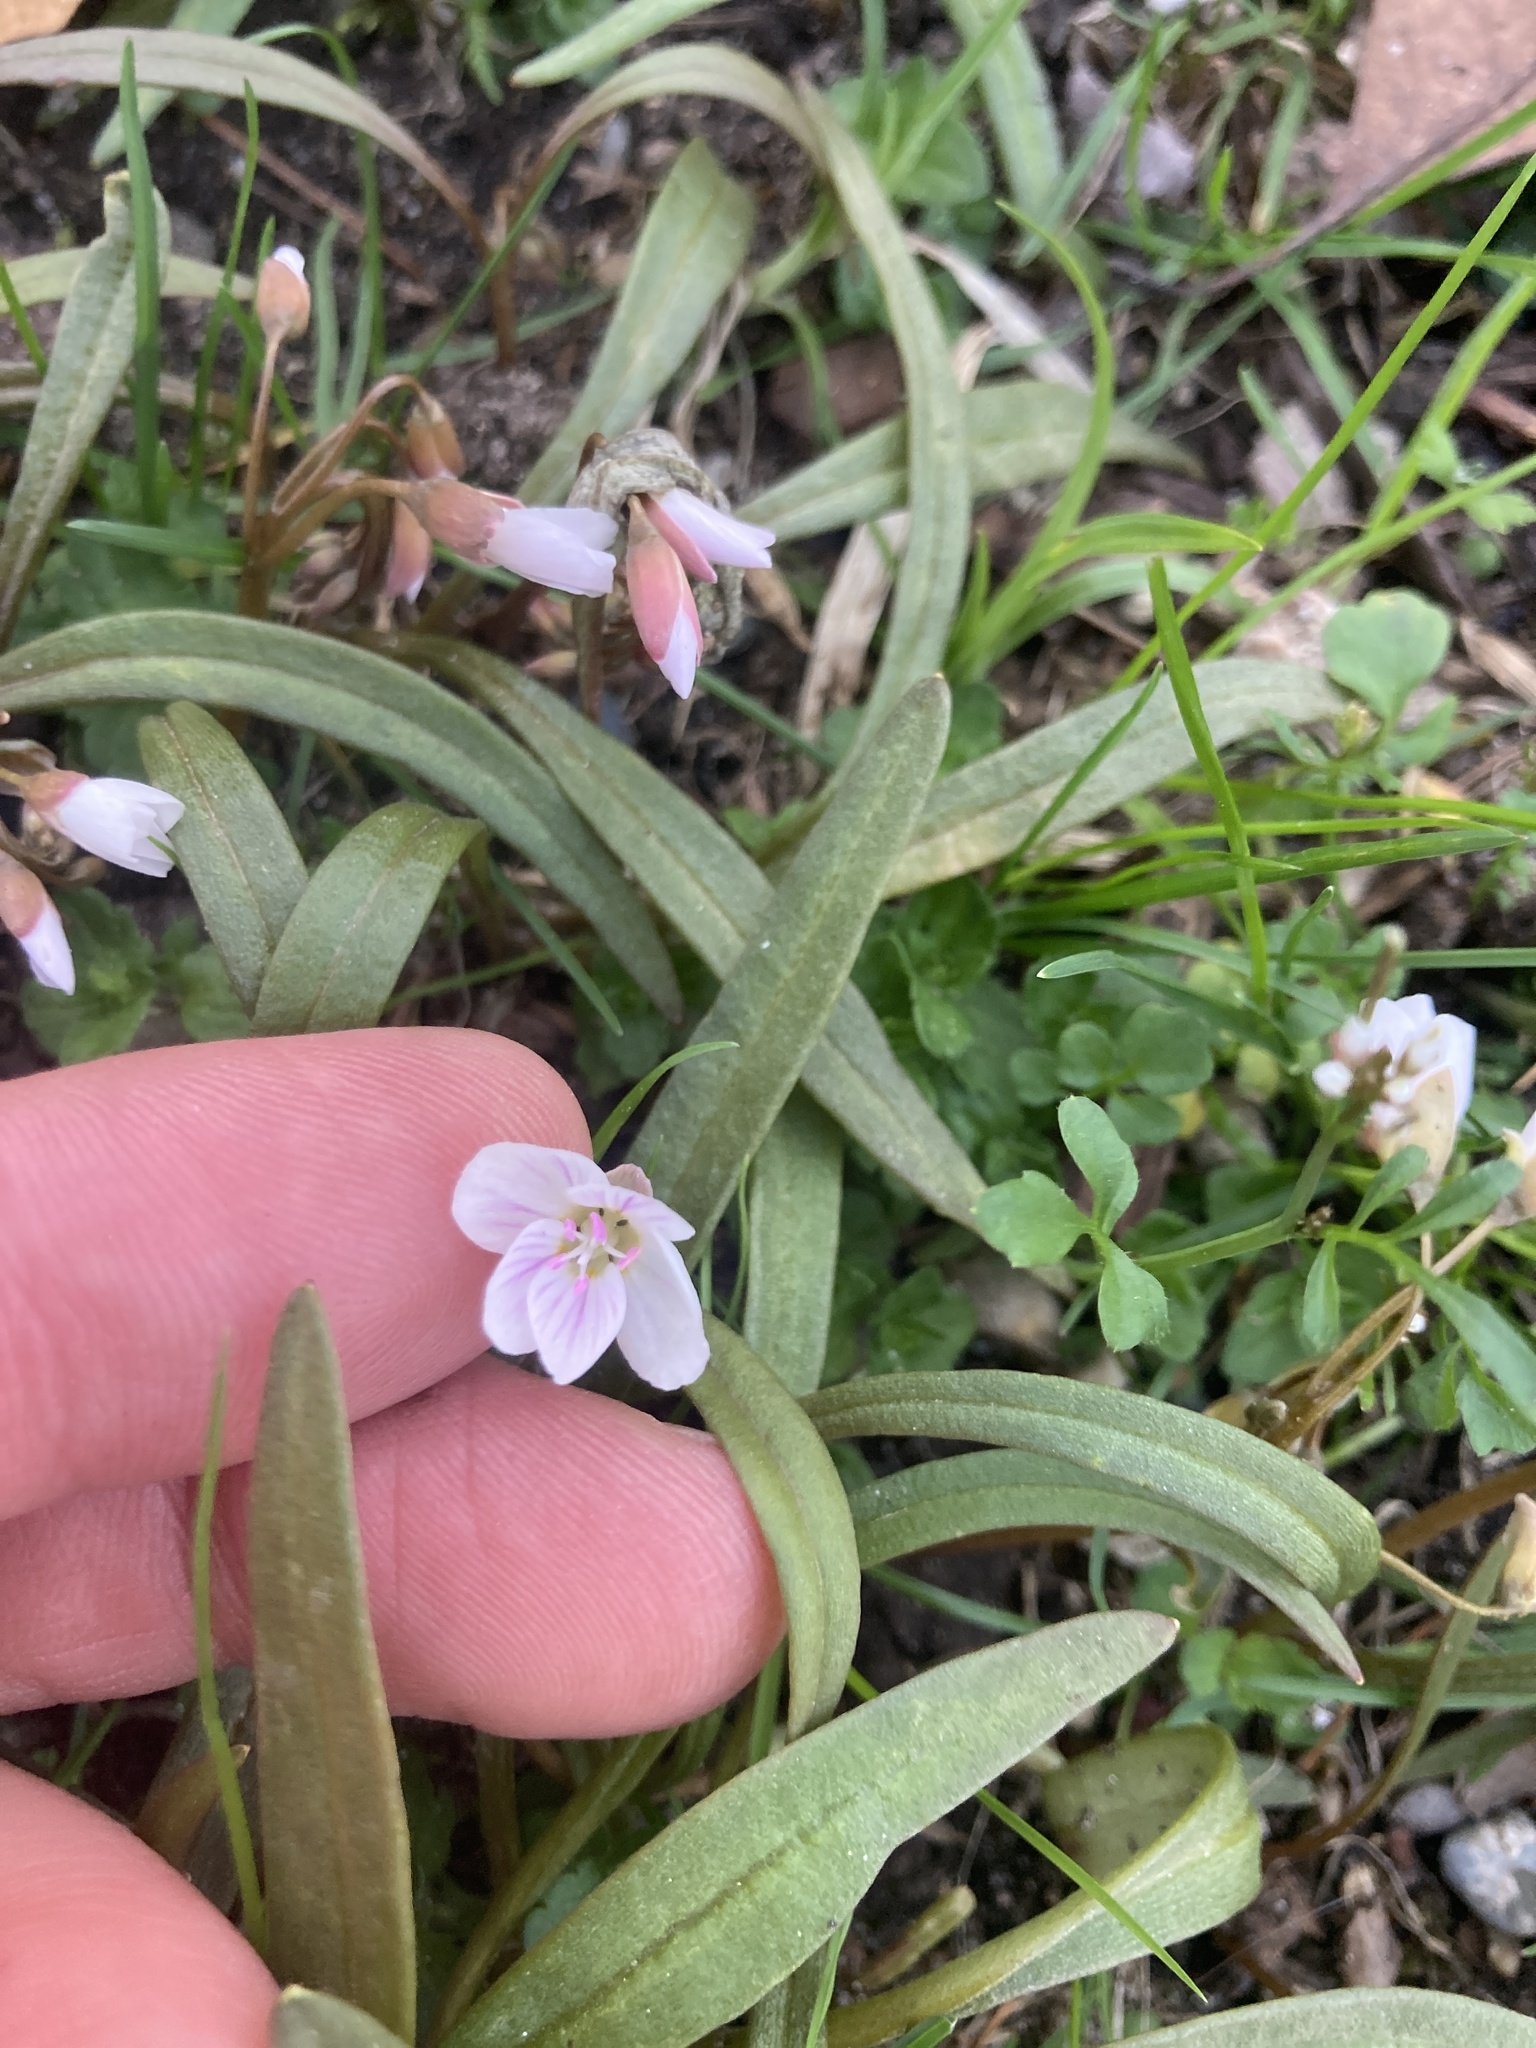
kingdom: Plantae
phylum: Tracheophyta
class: Magnoliopsida
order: Caryophyllales
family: Montiaceae
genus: Claytonia
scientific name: Claytonia virginica
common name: Virginia springbeauty
